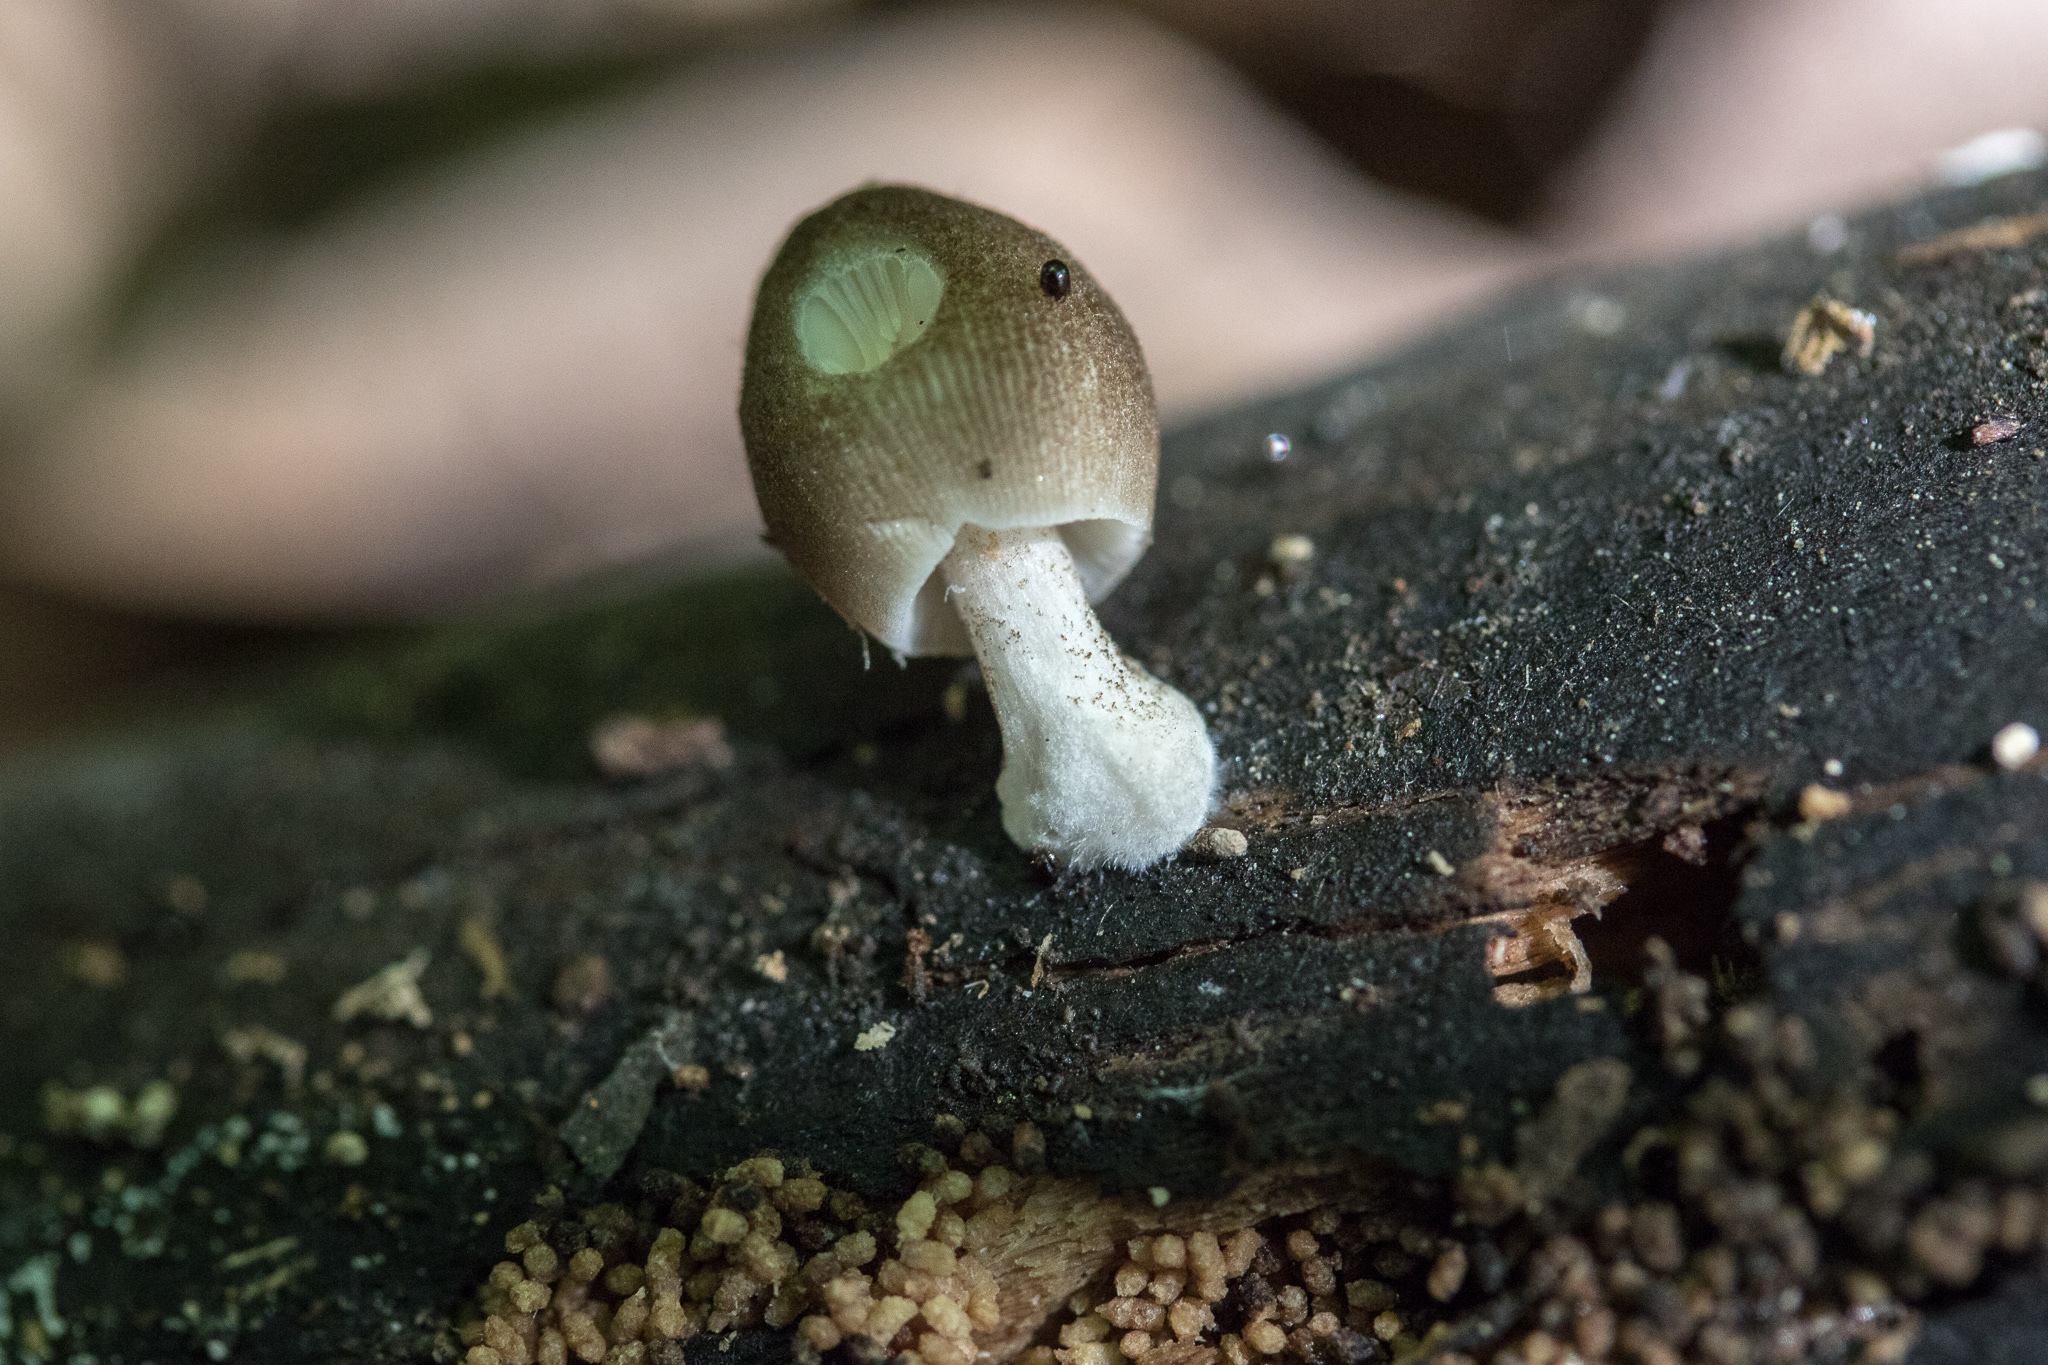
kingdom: Fungi
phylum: Basidiomycota
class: Agaricomycetes
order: Agaricales
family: Pluteaceae
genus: Pluteus
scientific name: Pluteus longistriatus
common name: Pleated pluteus
